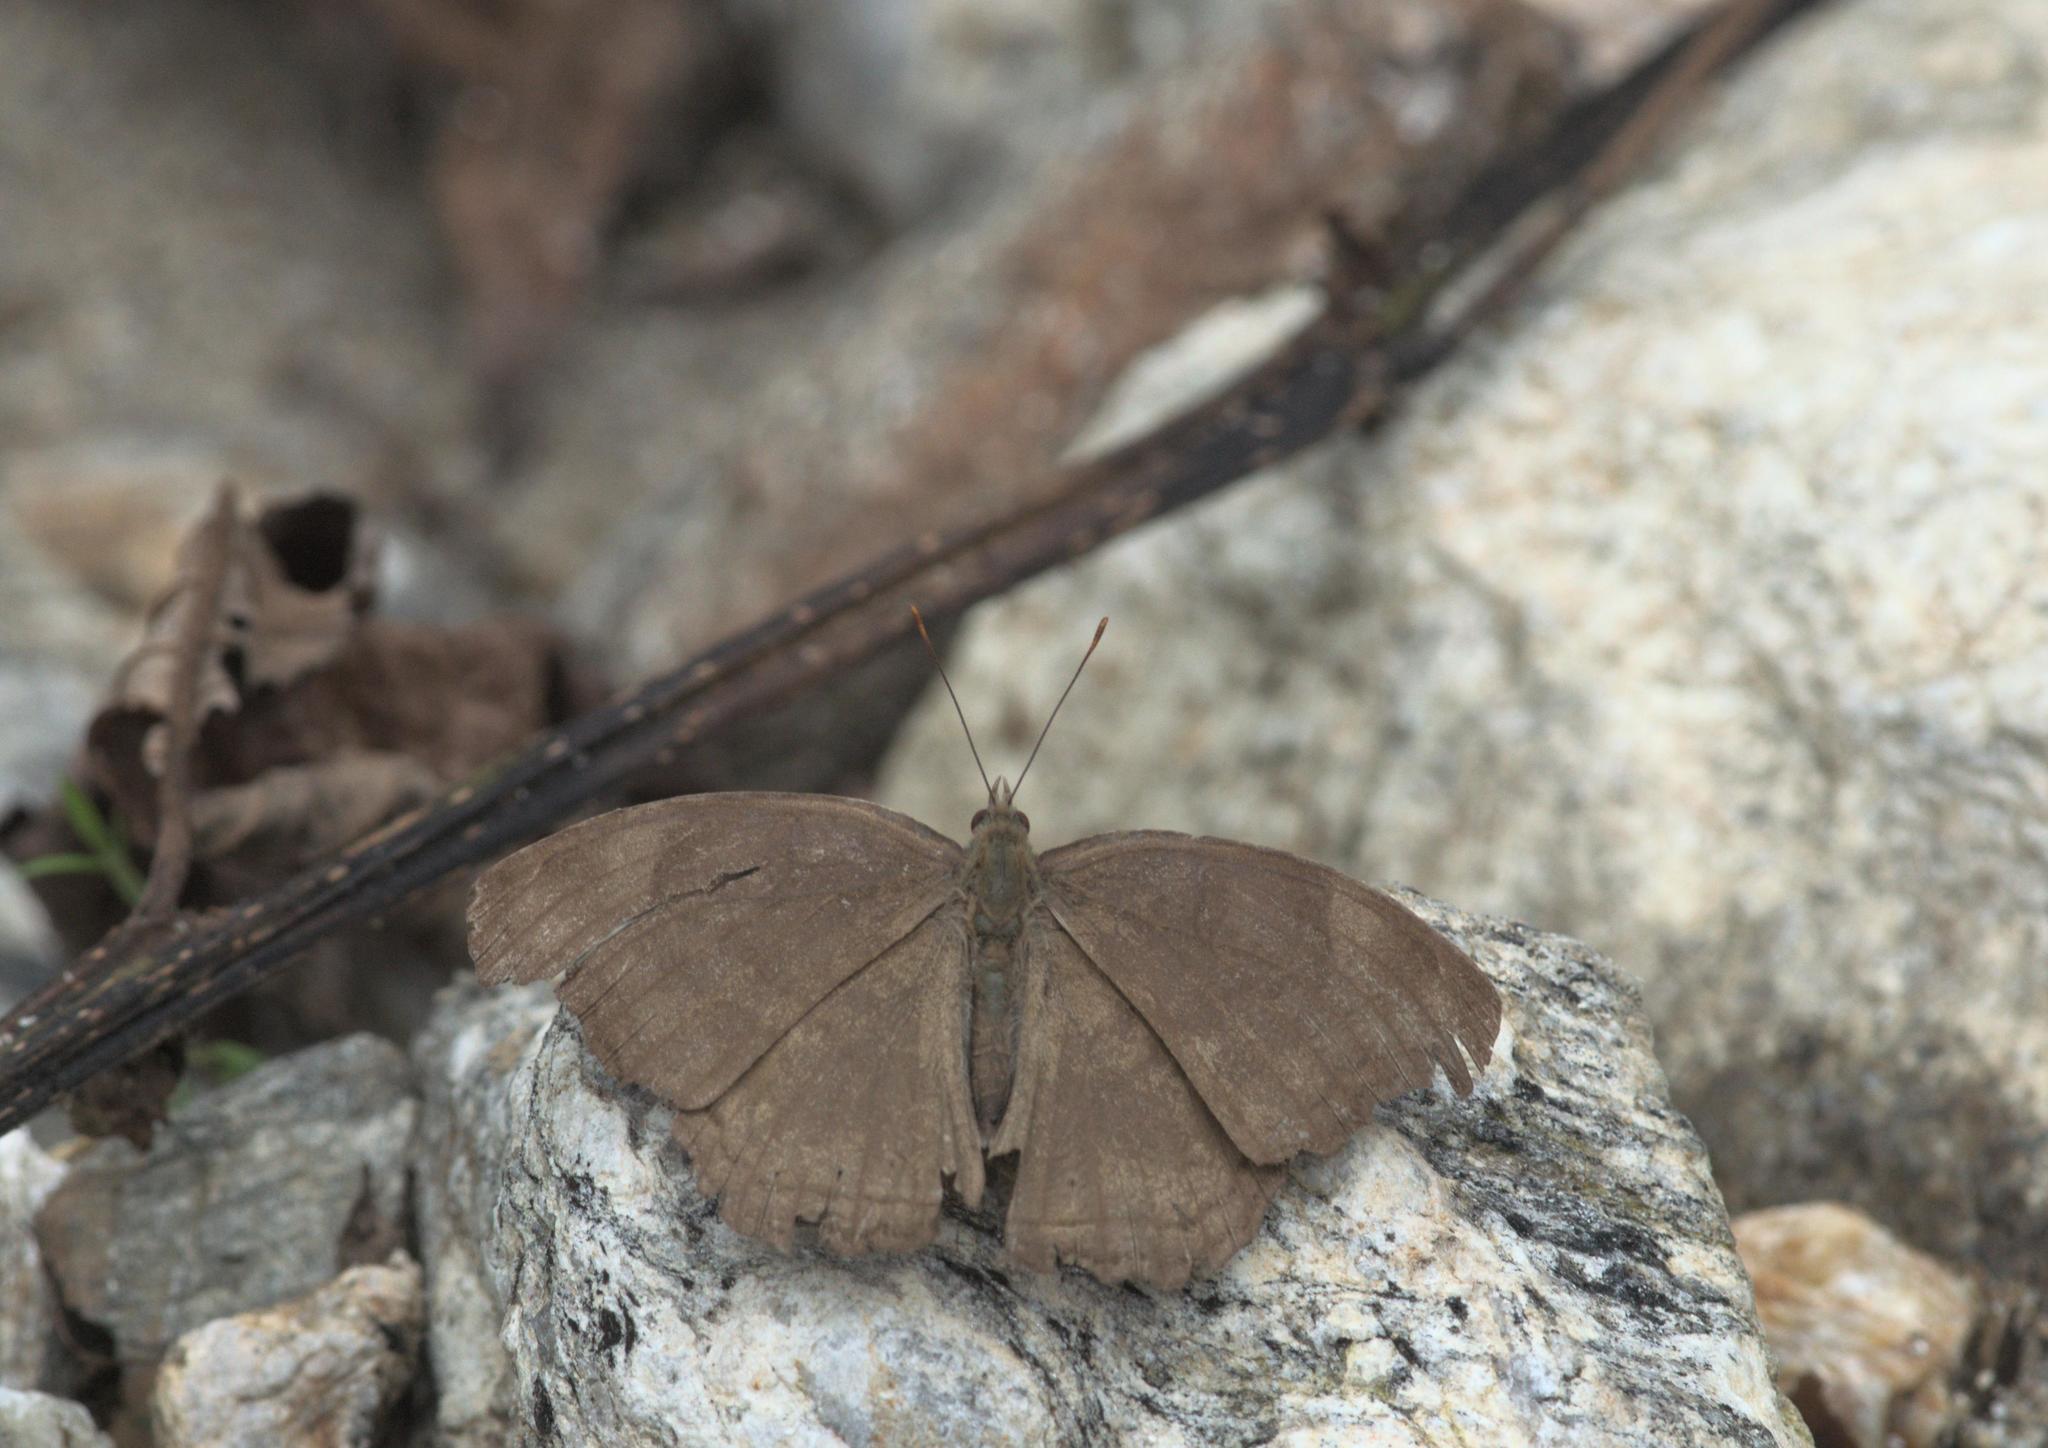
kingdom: Animalia
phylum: Arthropoda
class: Insecta
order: Lepidoptera
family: Nymphalidae
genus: Junonia
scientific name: Junonia iphita
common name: Chocolate pansy
